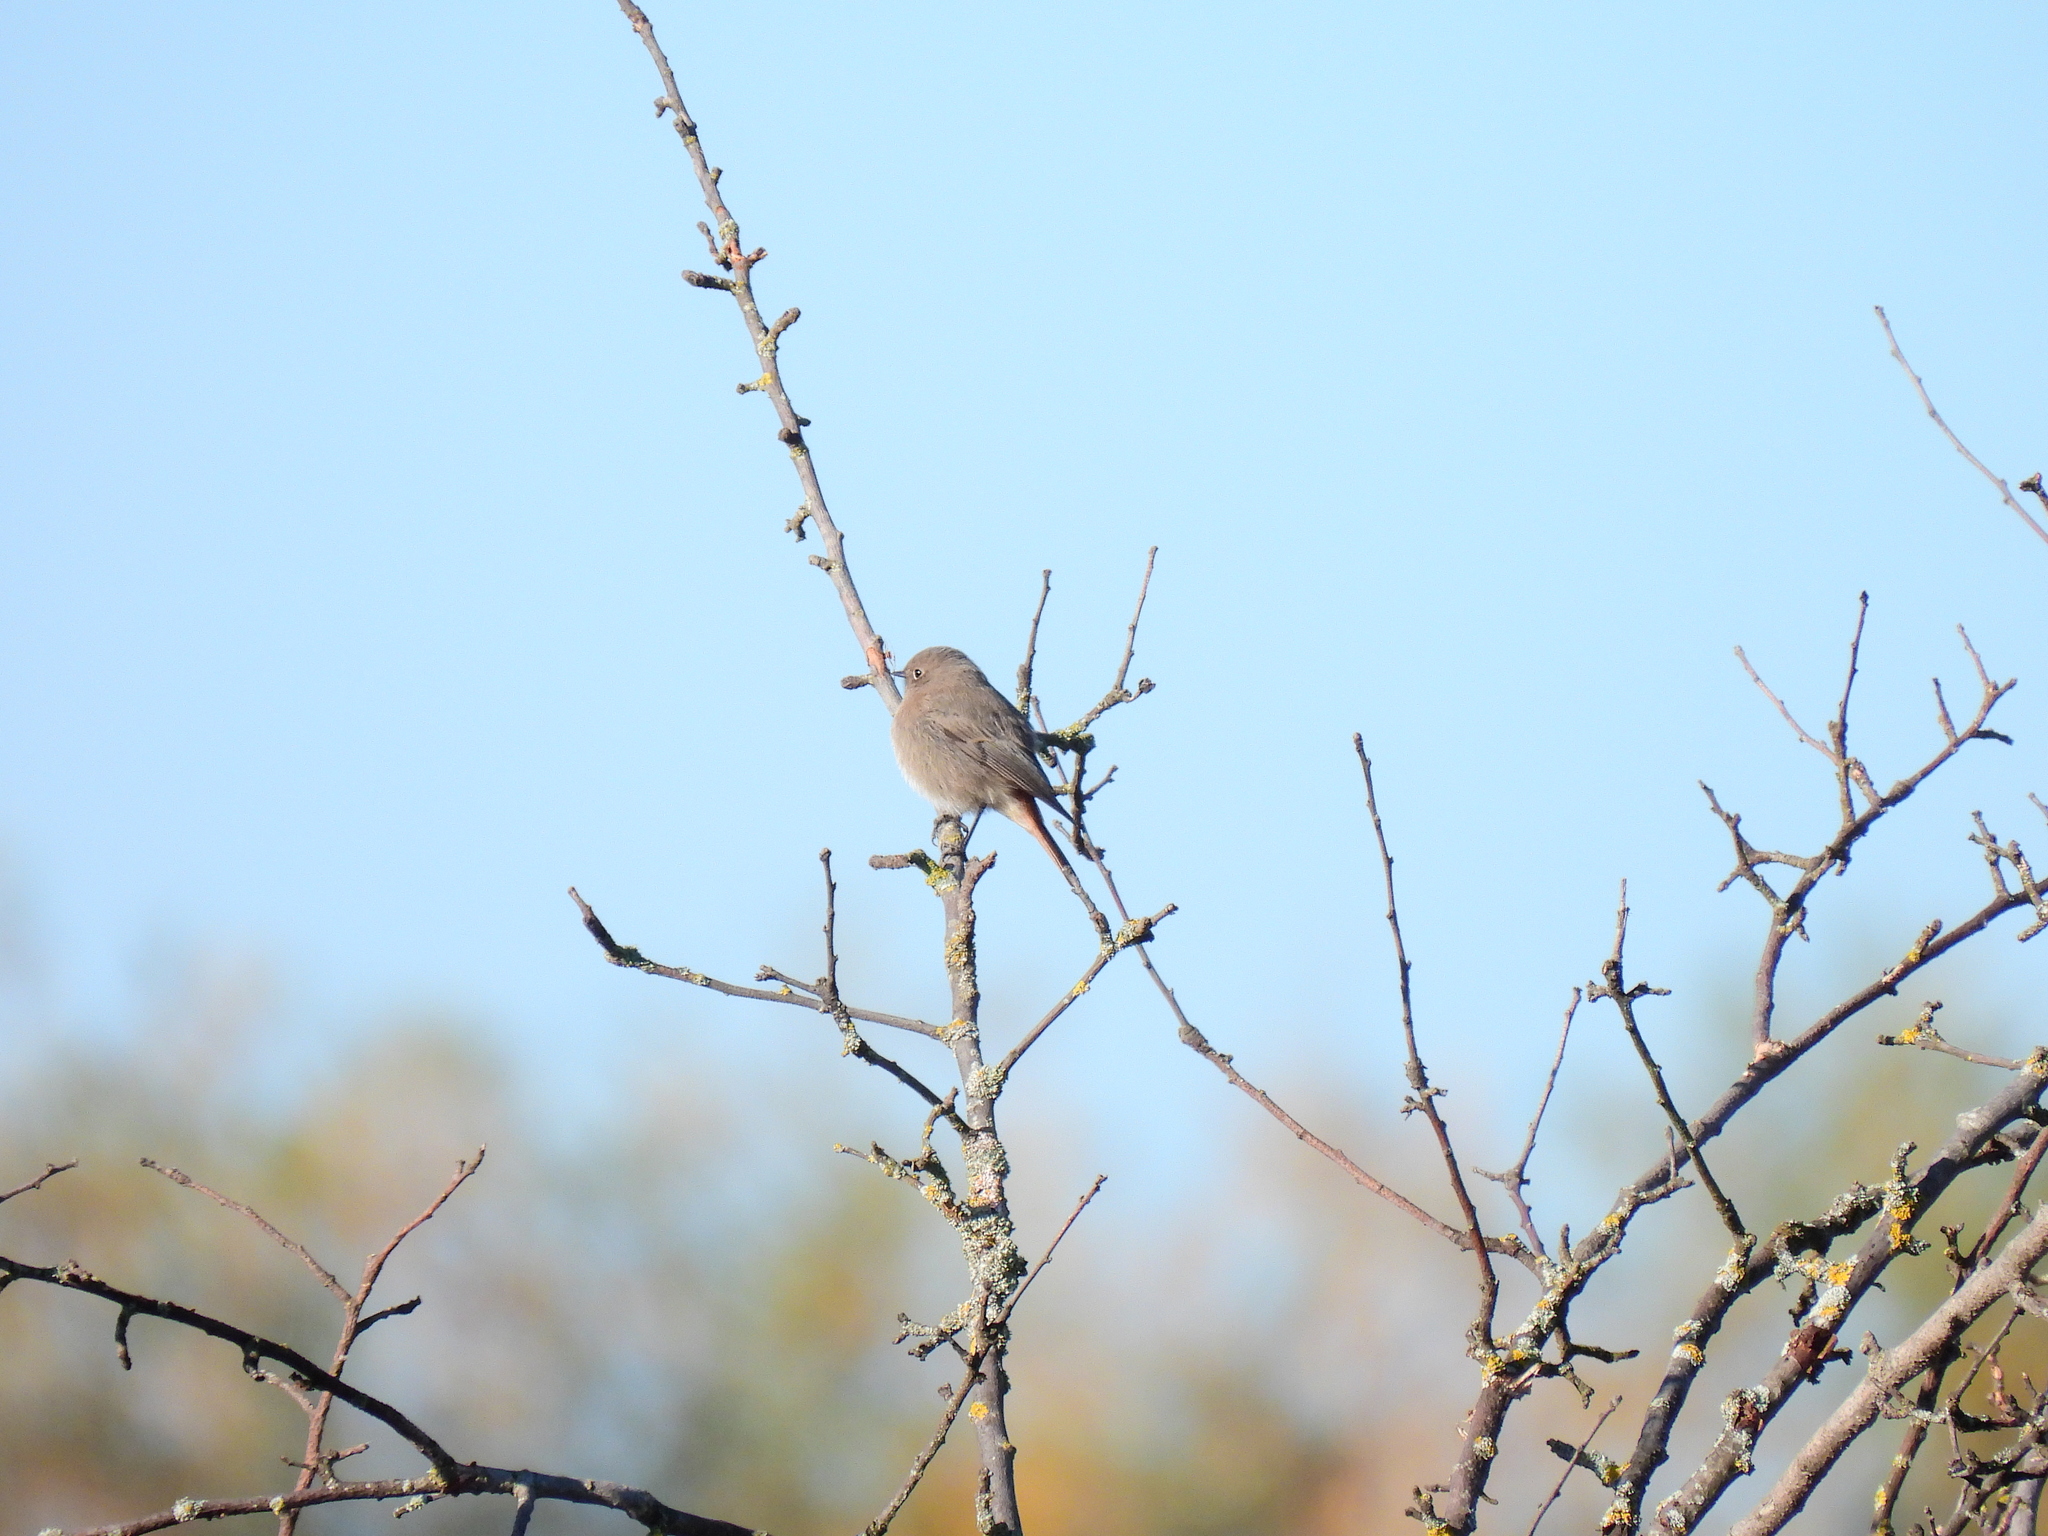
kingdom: Animalia
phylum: Chordata
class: Aves
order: Passeriformes
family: Muscicapidae
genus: Phoenicurus
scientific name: Phoenicurus ochruros
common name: Black redstart
